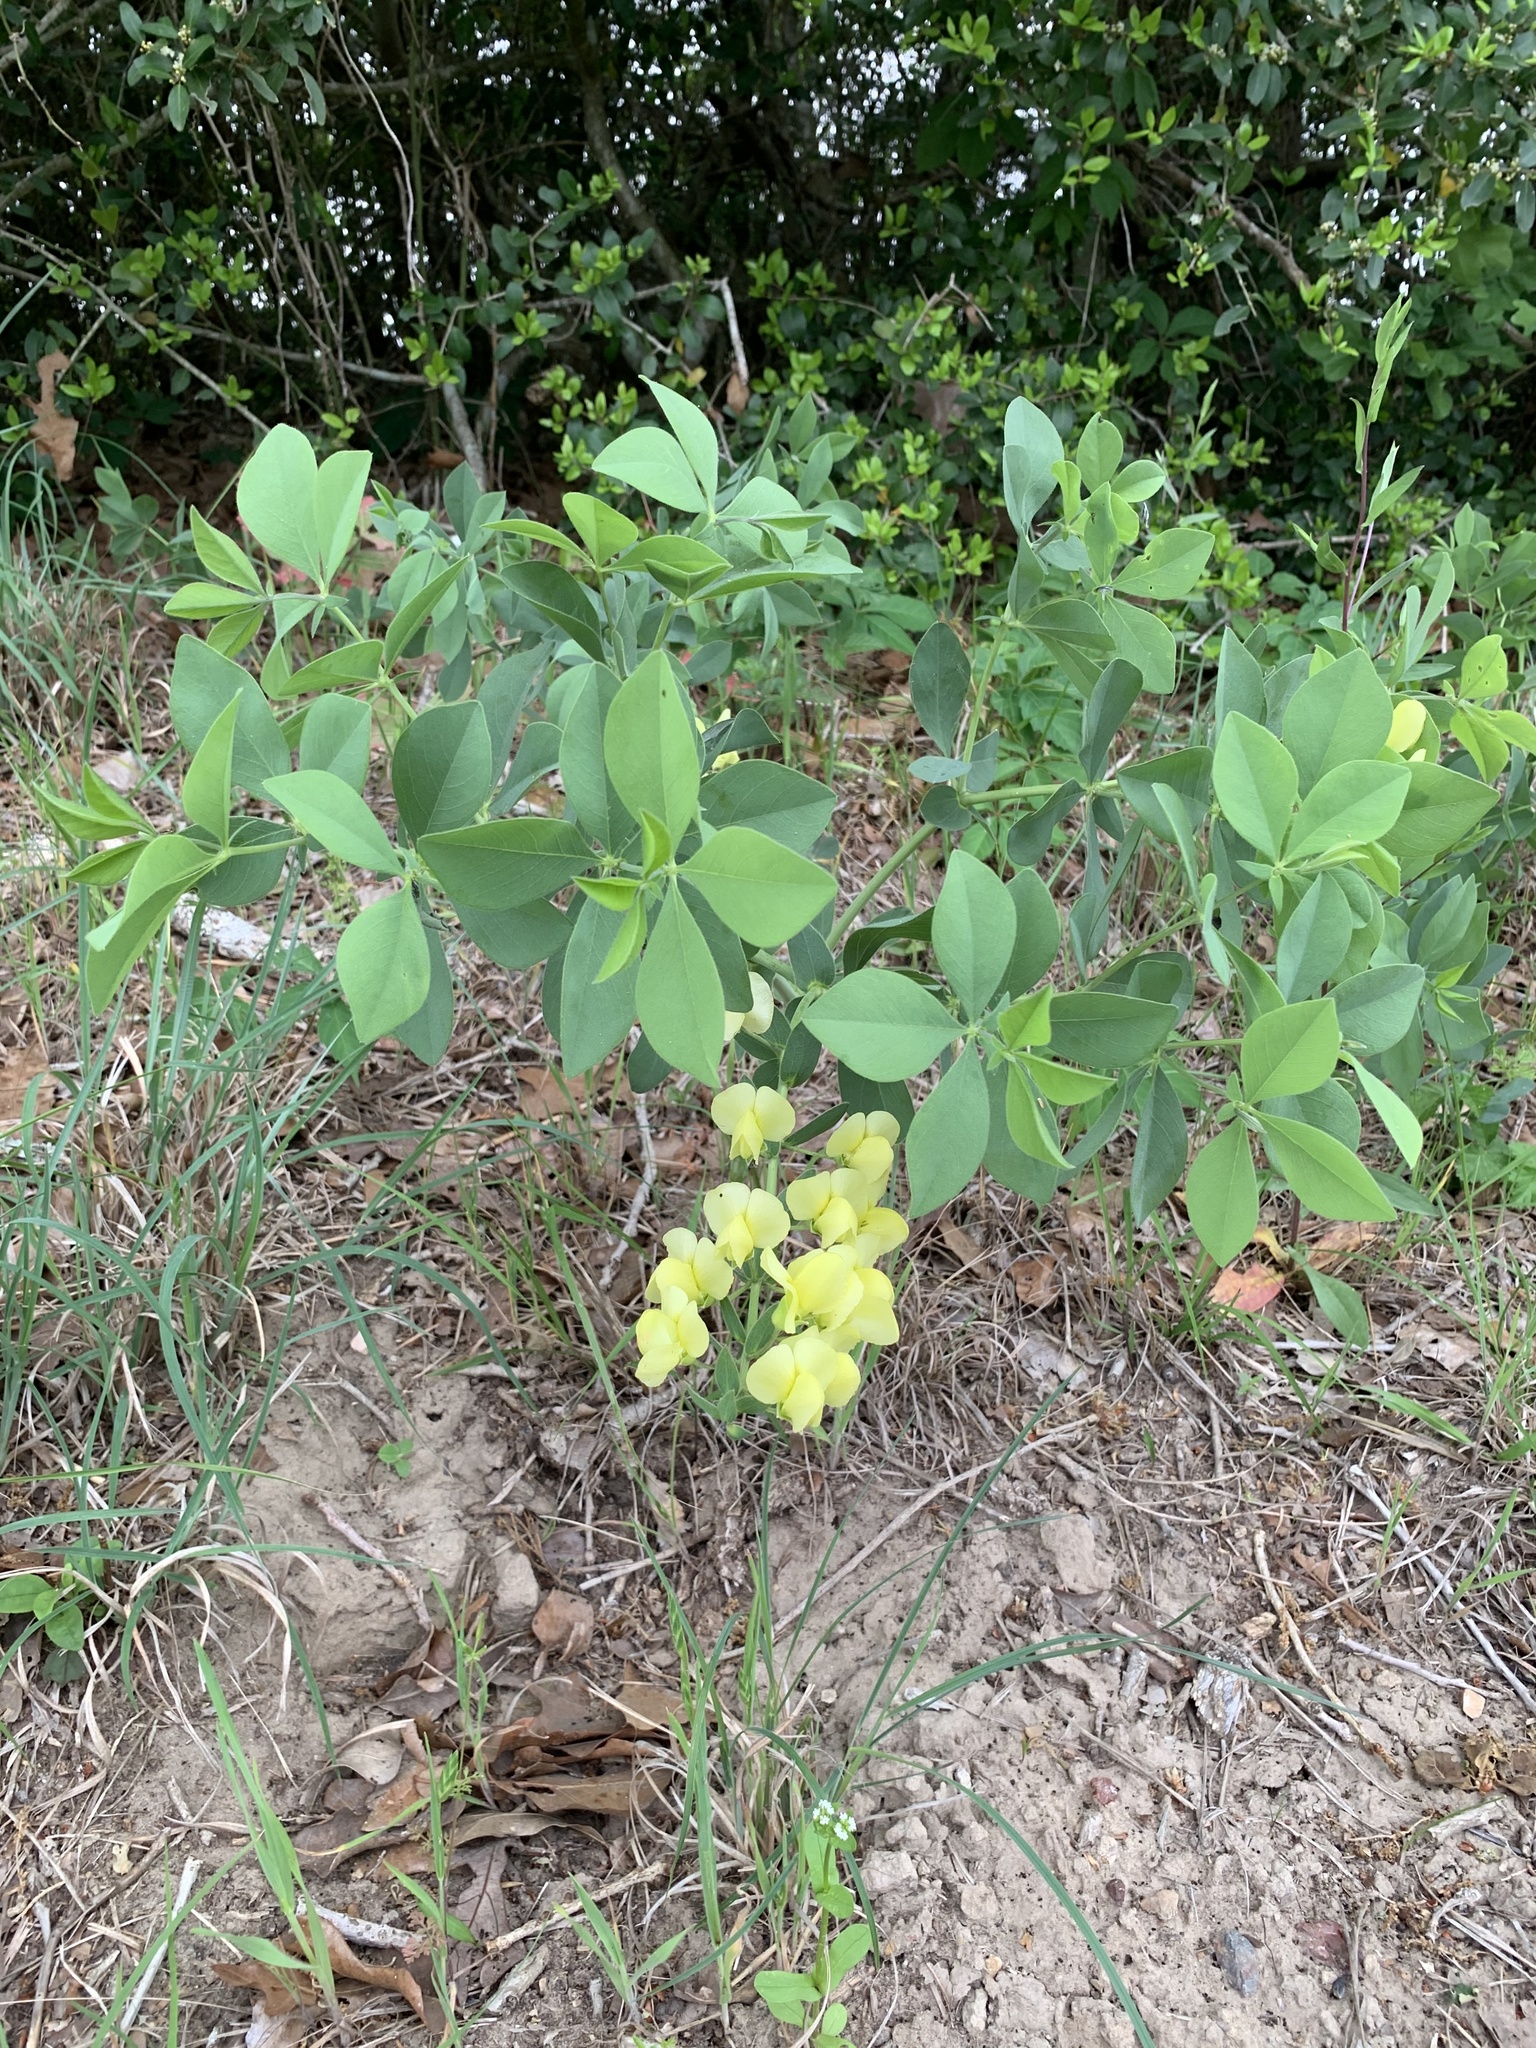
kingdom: Plantae
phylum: Tracheophyta
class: Magnoliopsida
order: Fabales
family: Fabaceae
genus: Baptisia
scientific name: Baptisia bracteata
